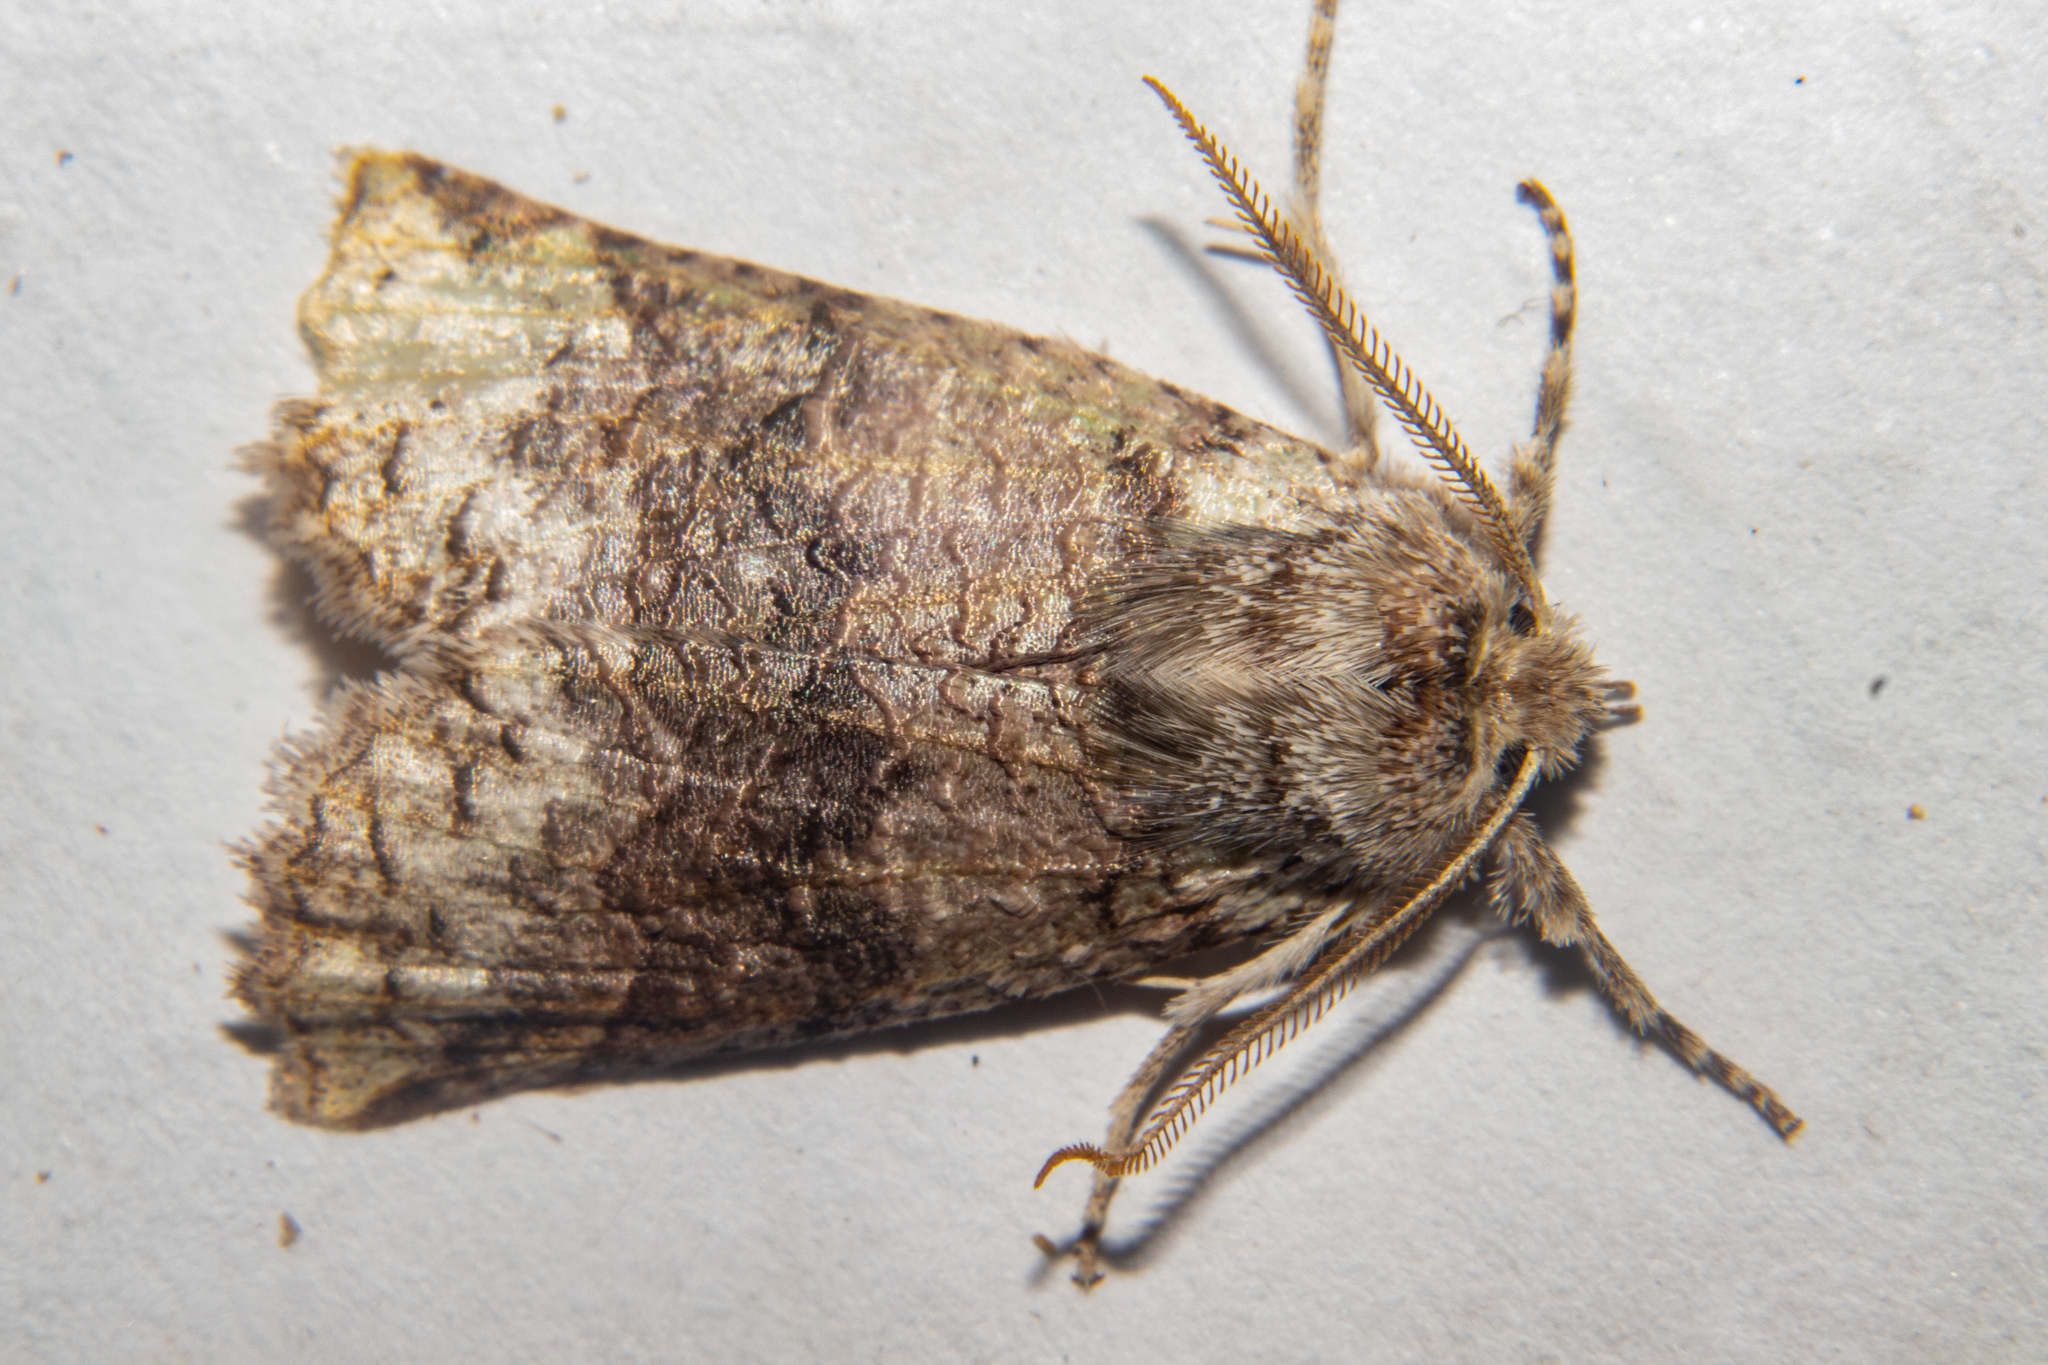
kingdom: Animalia
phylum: Arthropoda
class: Insecta
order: Lepidoptera
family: Geometridae
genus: Declana
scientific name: Declana floccosa
